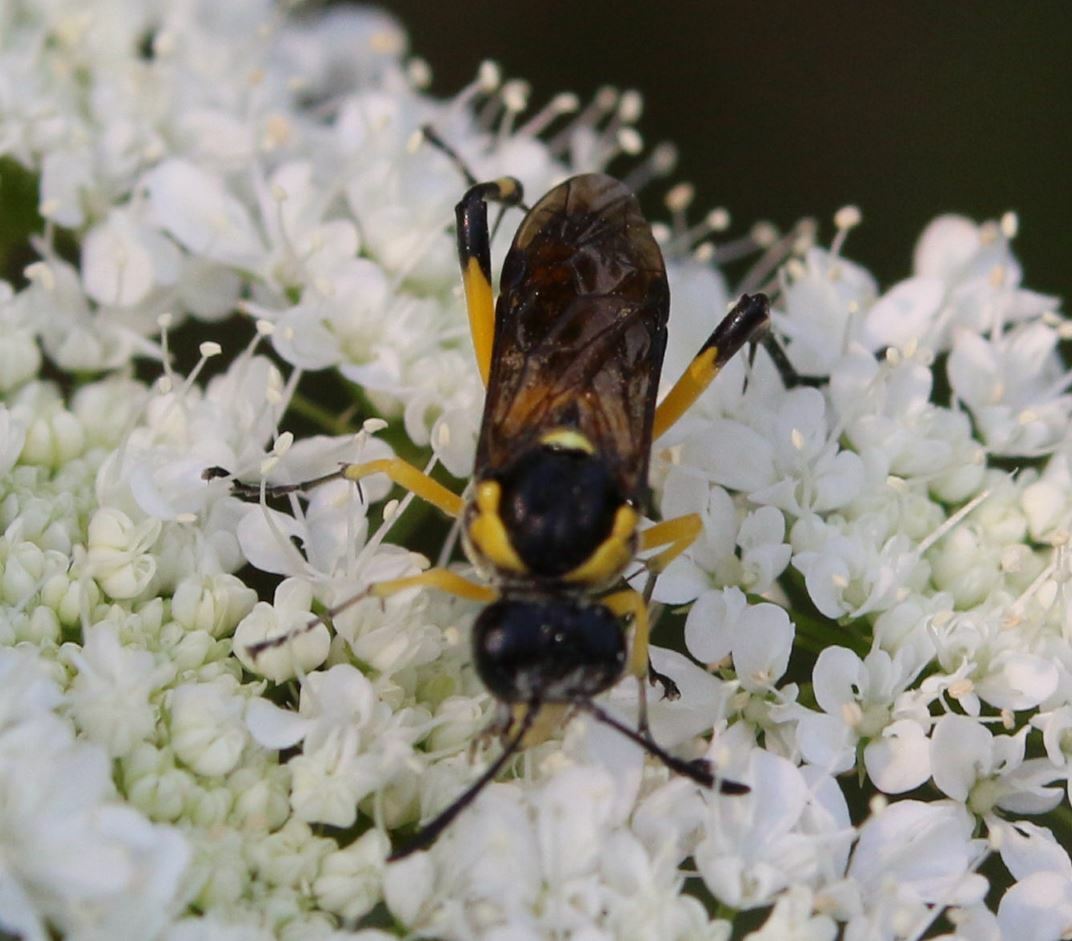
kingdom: Animalia
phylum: Arthropoda
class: Insecta
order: Hymenoptera
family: Tenthredinidae
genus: Macrophya
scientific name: Macrophya montana
